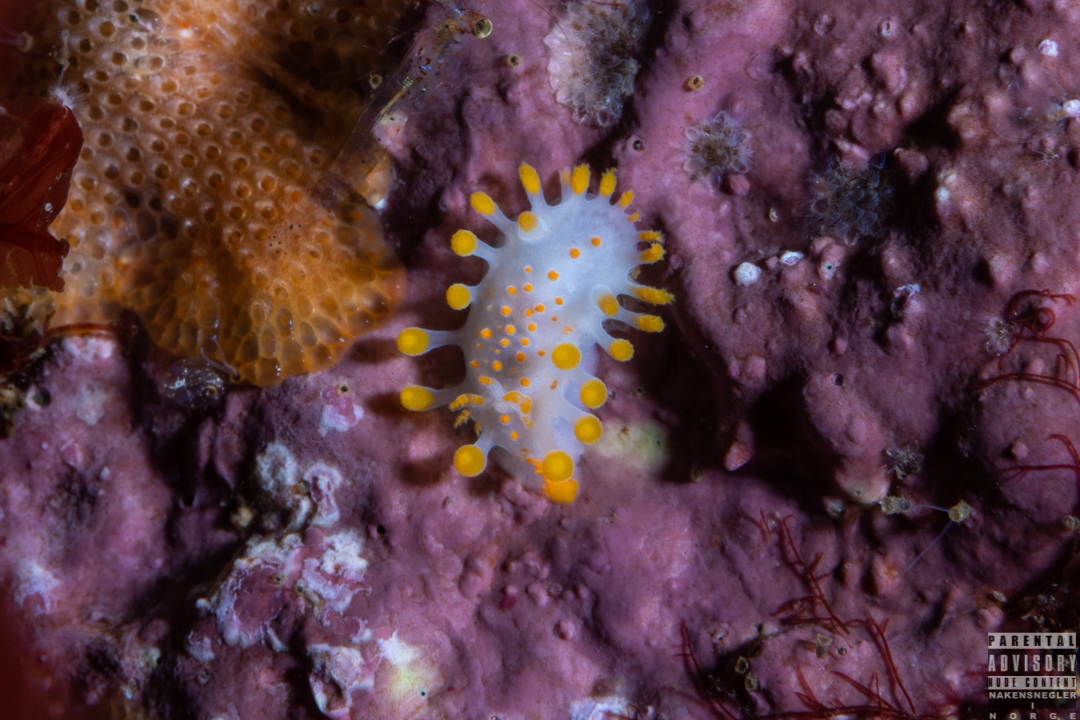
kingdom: Animalia
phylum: Mollusca
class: Gastropoda
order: Nudibranchia
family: Polyceridae
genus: Limacia
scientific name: Limacia clavigera
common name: Orange-clubbed sea slug
